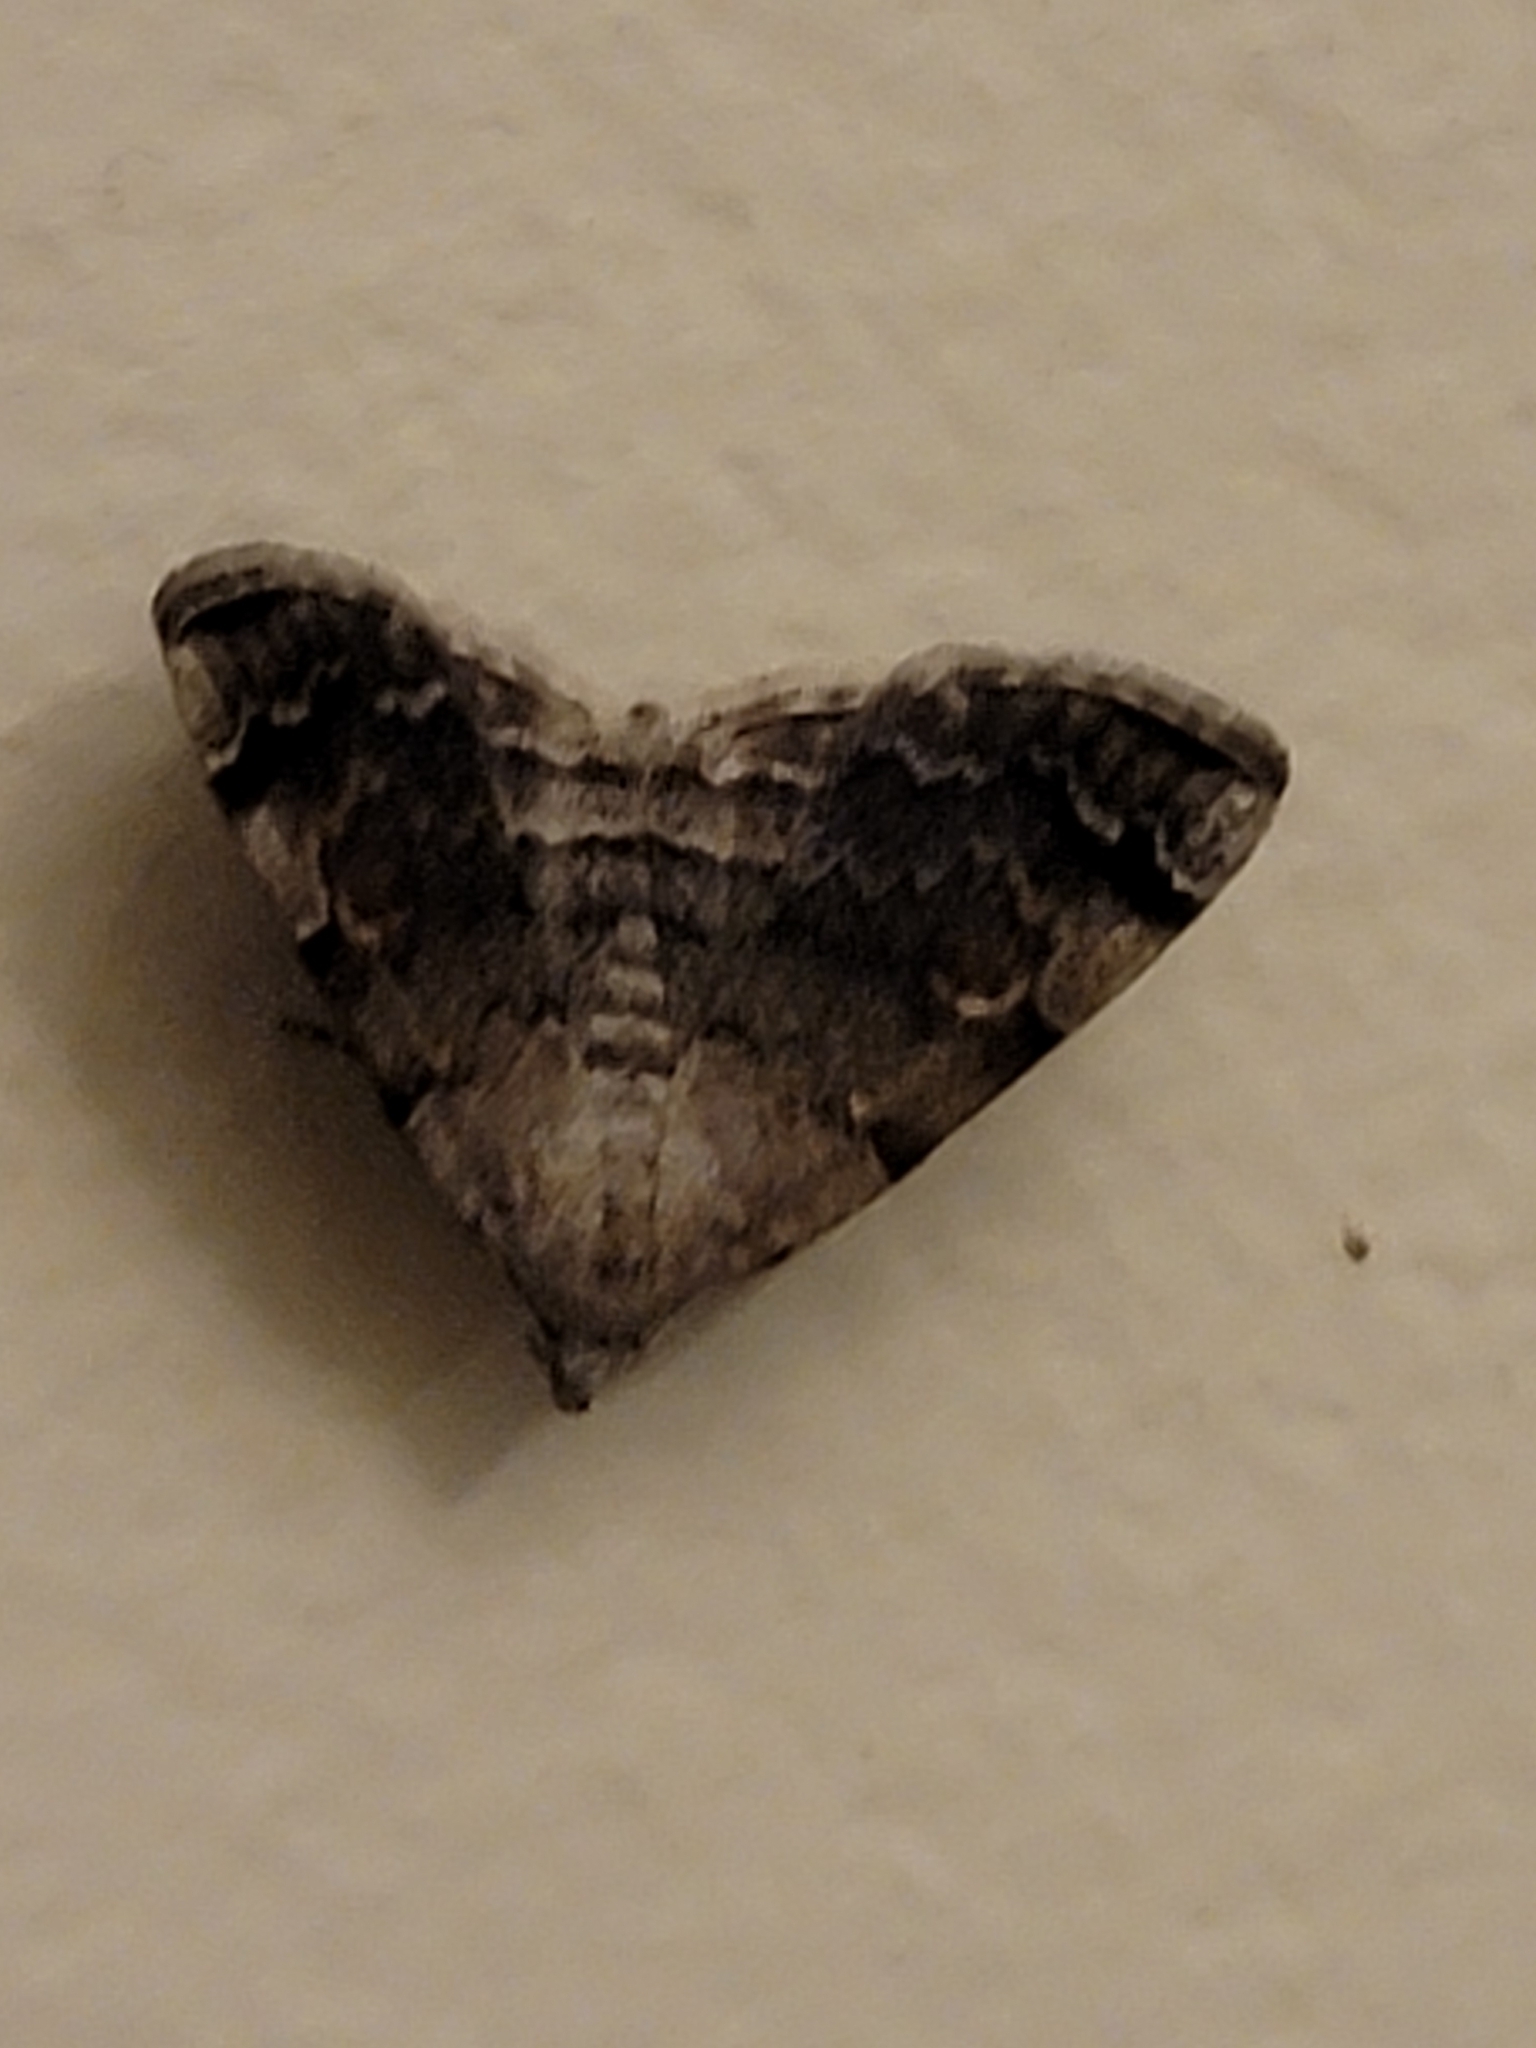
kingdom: Animalia
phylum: Arthropoda
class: Insecta
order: Lepidoptera
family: Erebidae
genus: Idia
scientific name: Idia americalis
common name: American idia moth
